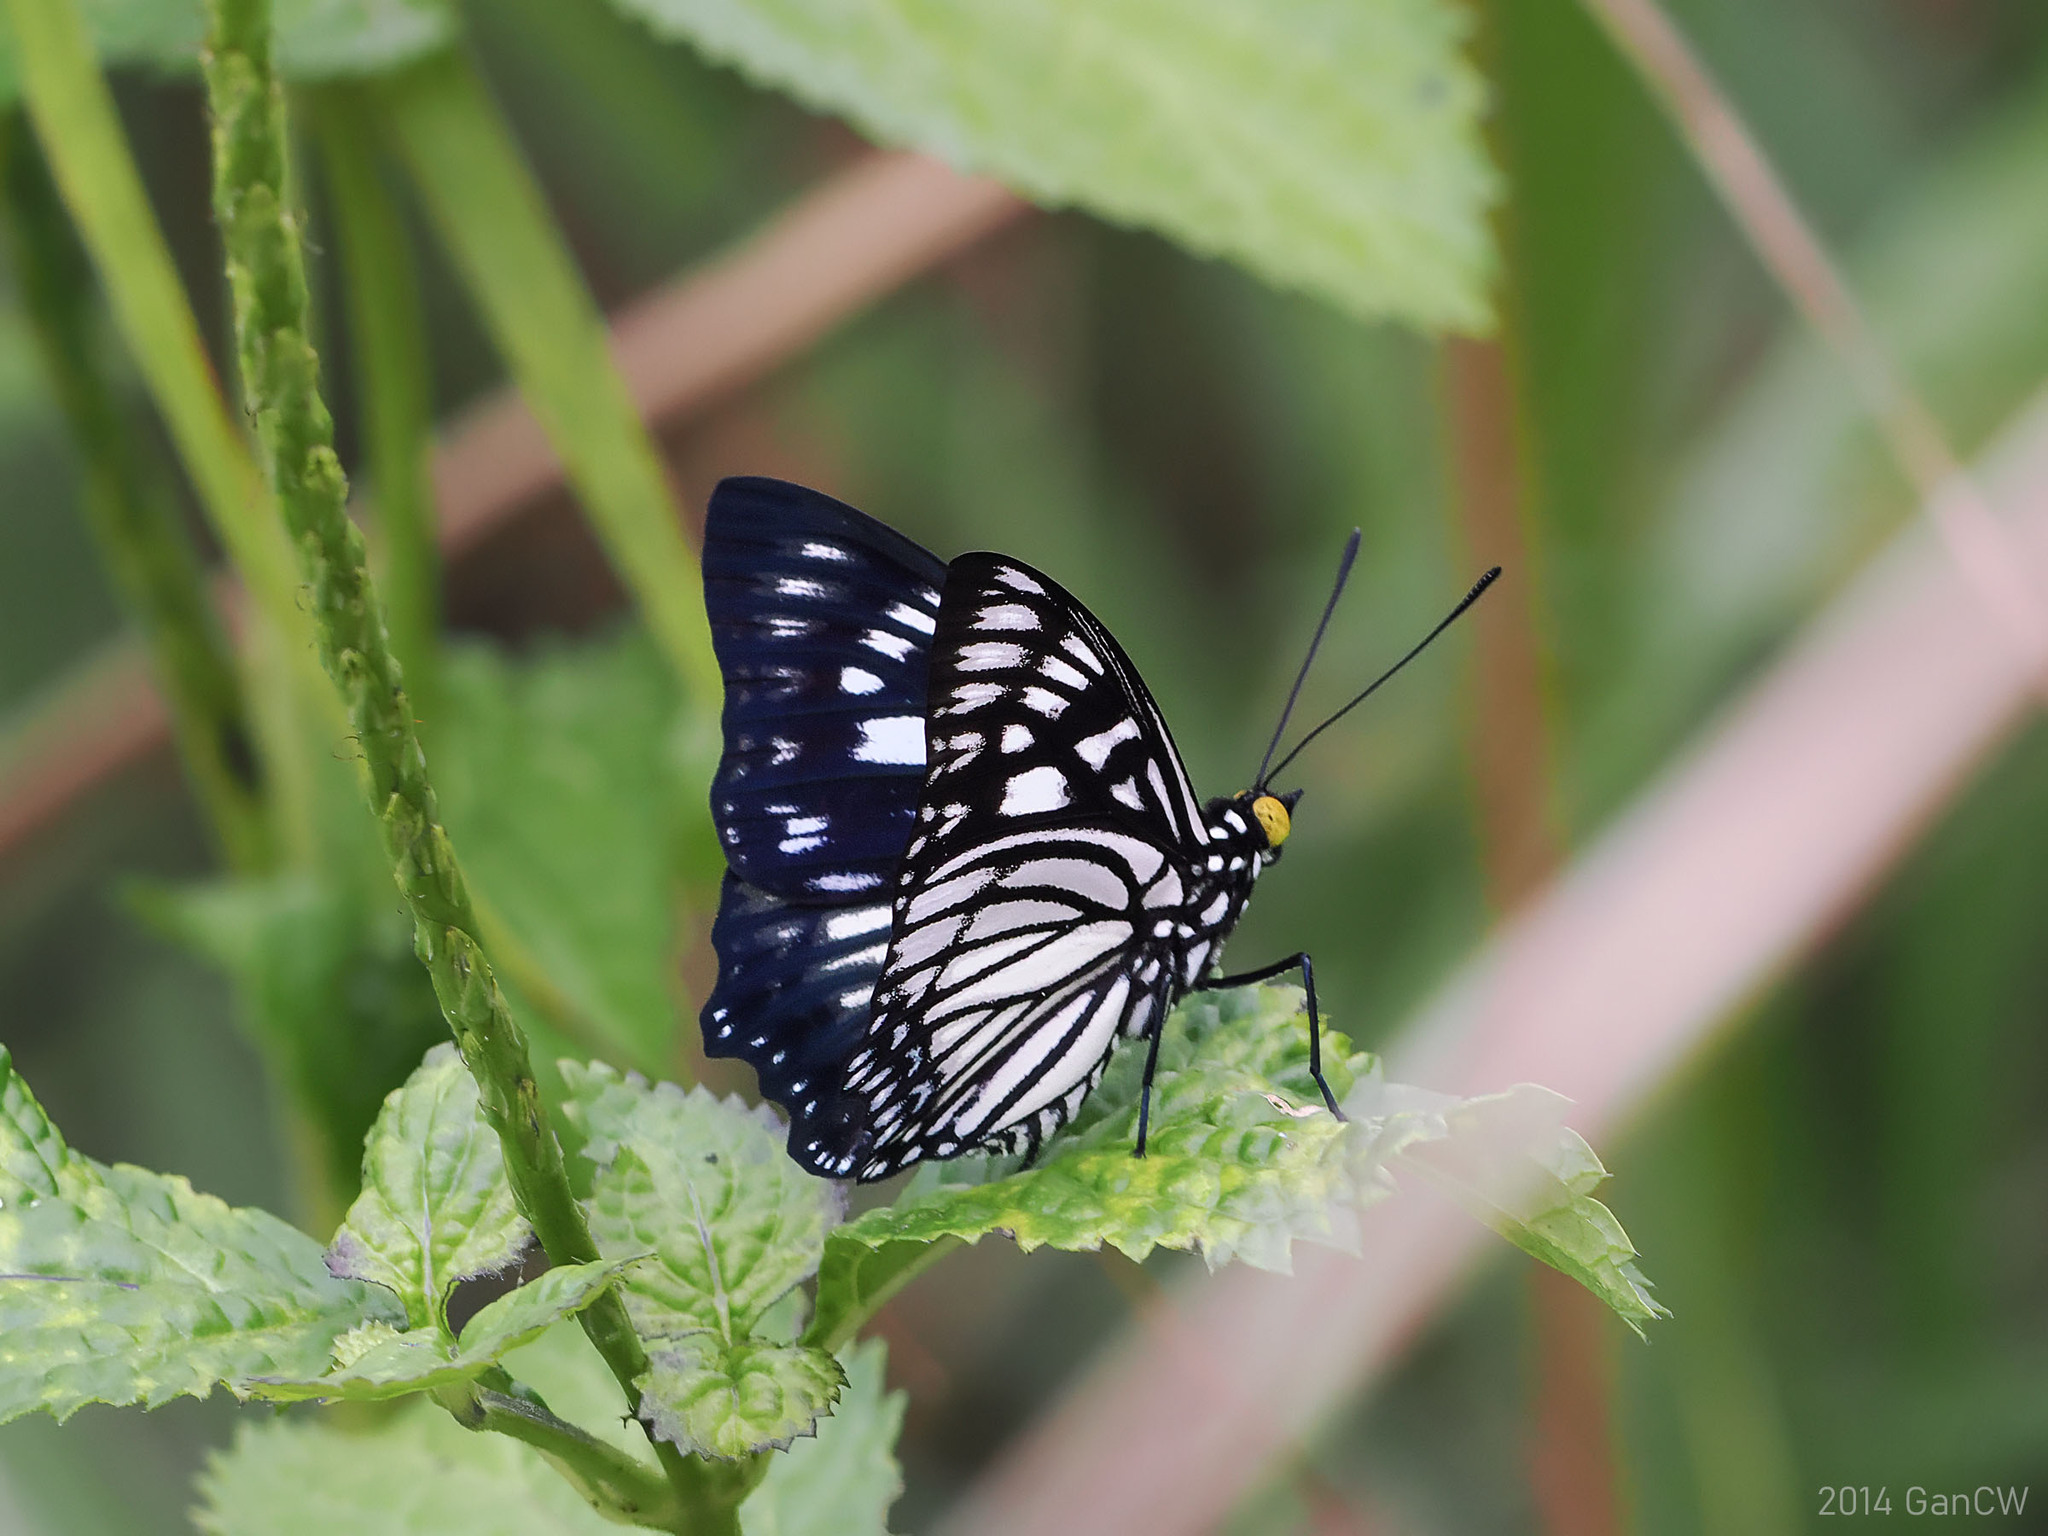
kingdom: Animalia
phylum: Arthropoda
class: Insecta
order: Lepidoptera
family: Nymphalidae
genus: Euripus
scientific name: Euripus nyctelius
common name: Courtesan
